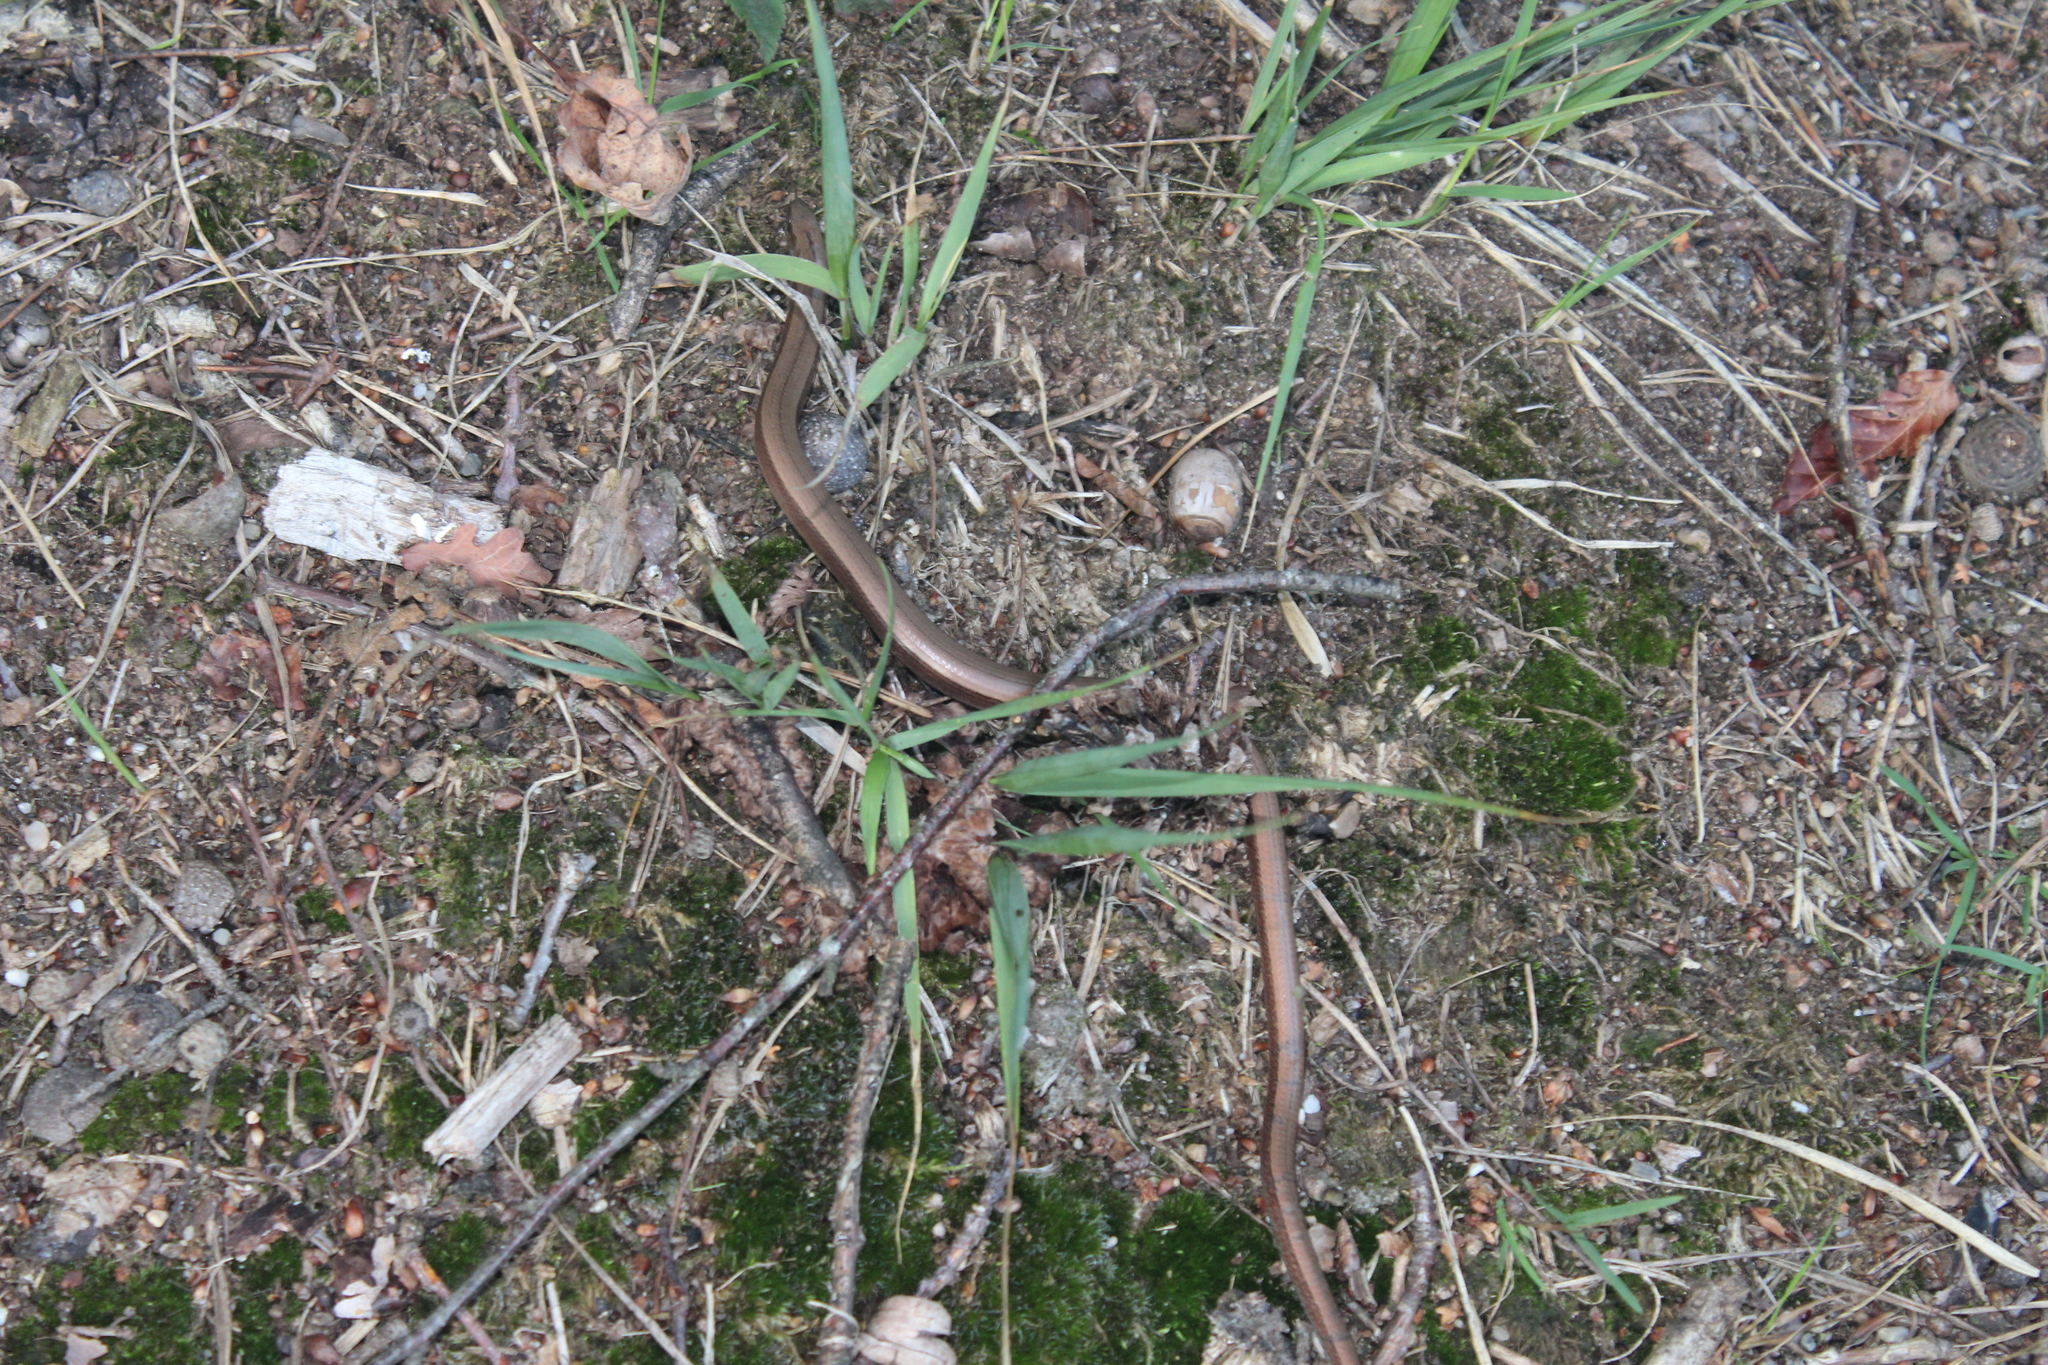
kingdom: Animalia
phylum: Chordata
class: Squamata
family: Anguidae
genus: Anguis
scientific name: Anguis fragilis
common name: Slow worm
